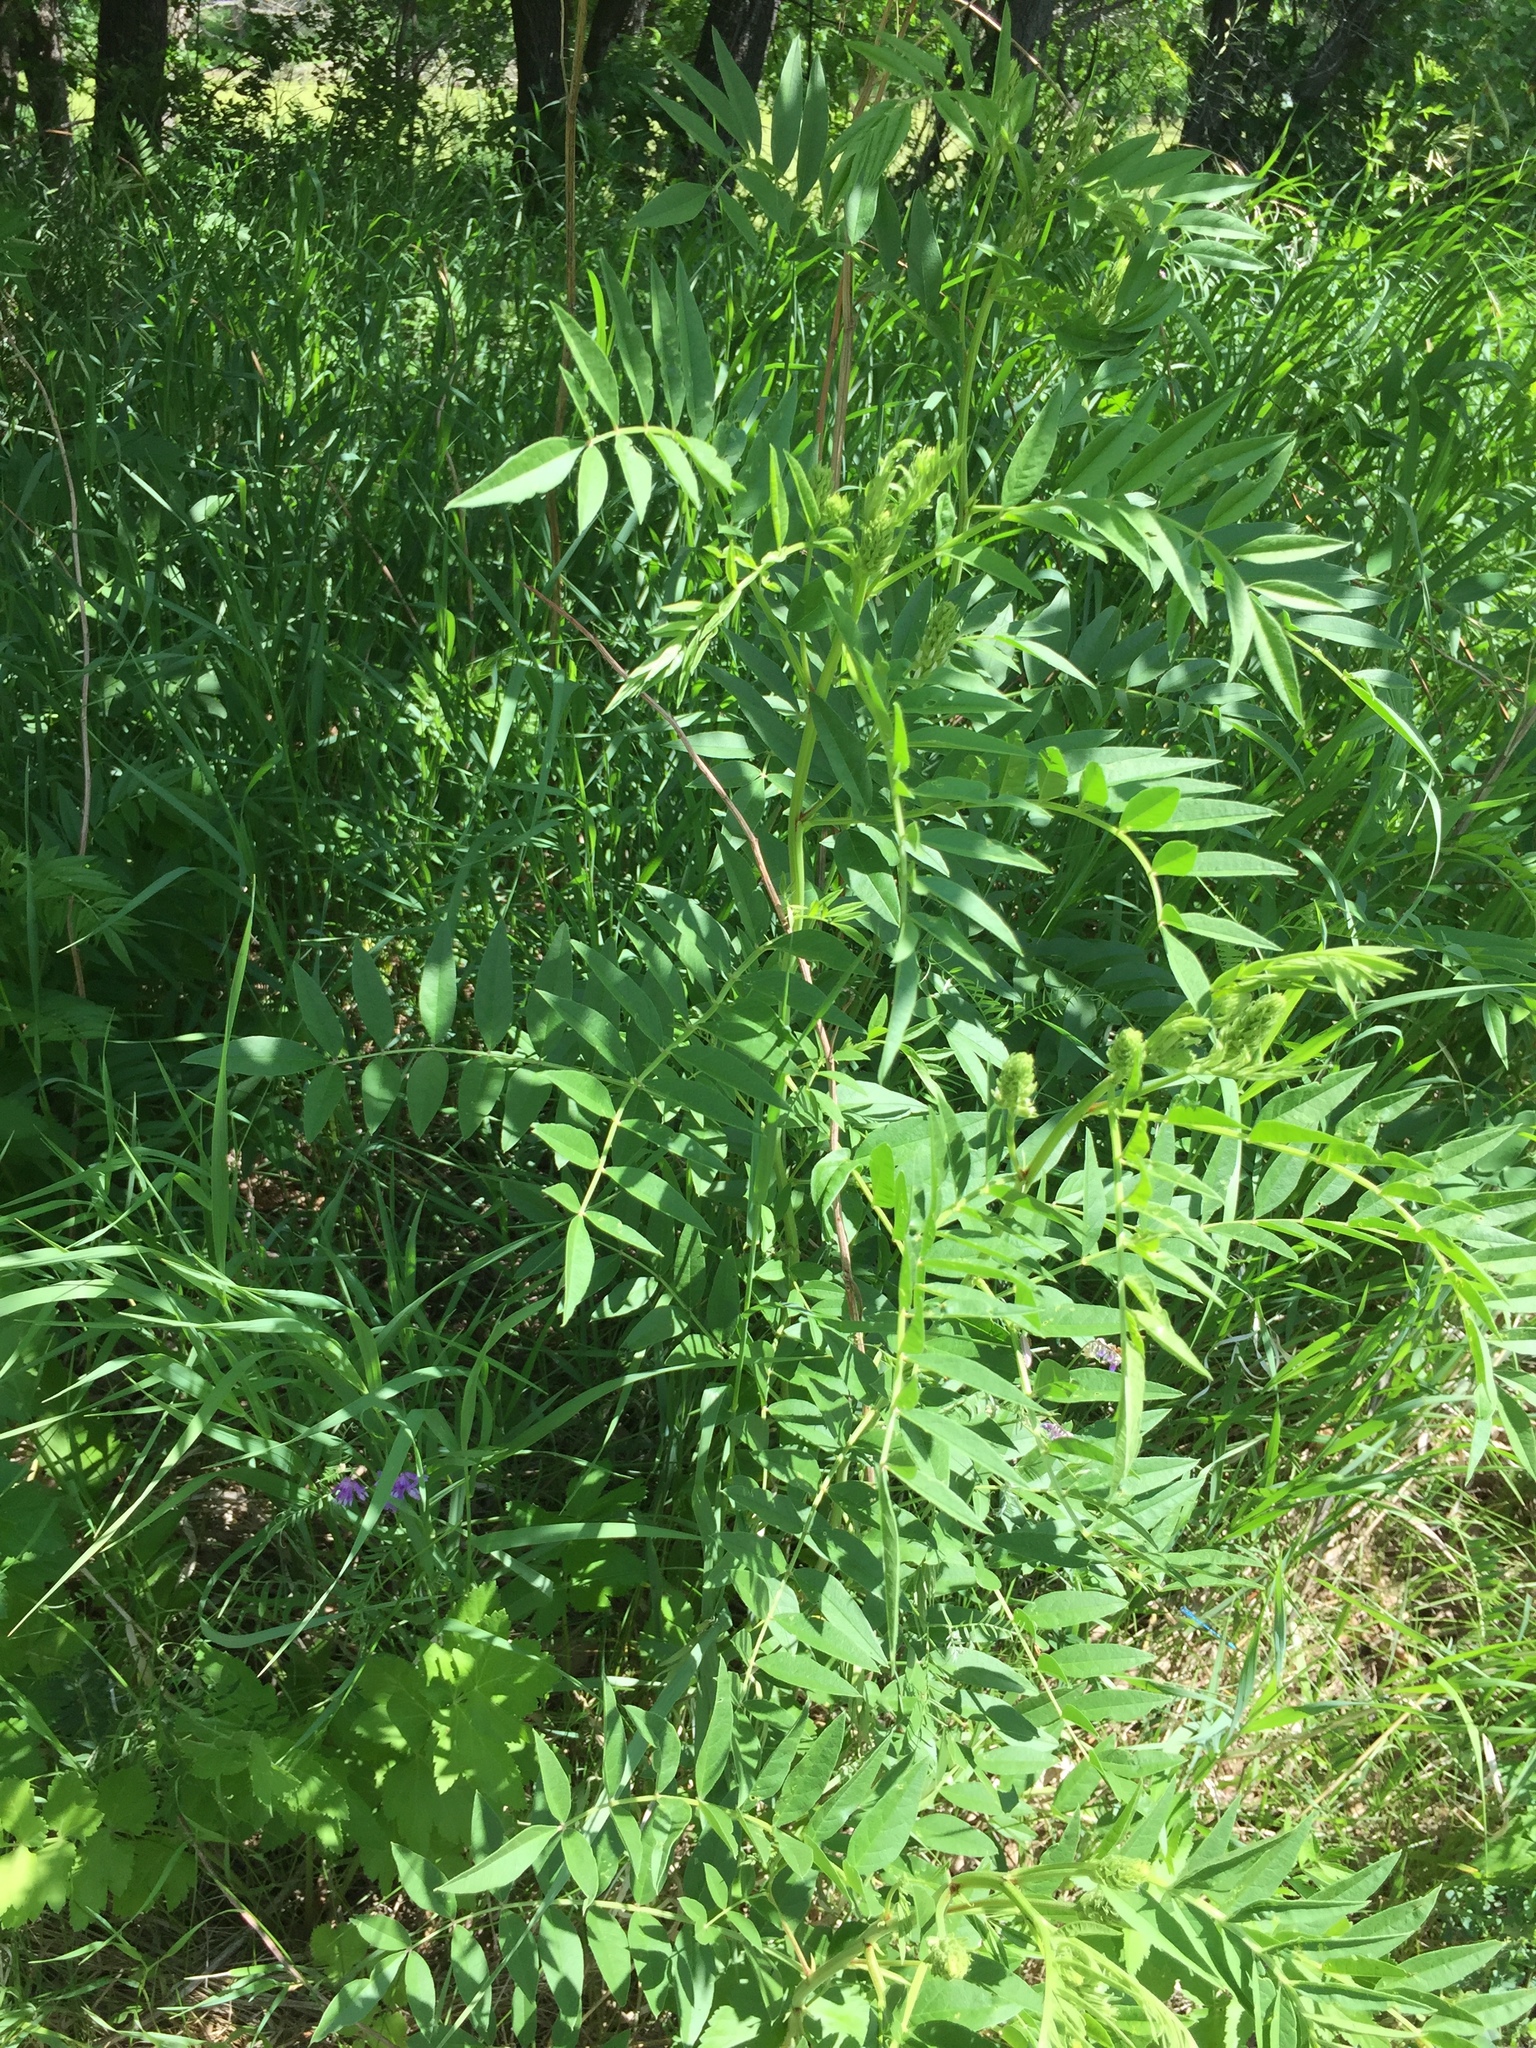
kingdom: Plantae
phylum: Tracheophyta
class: Magnoliopsida
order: Fabales
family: Fabaceae
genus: Glycyrrhiza
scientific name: Glycyrrhiza lepidota
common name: American liquorice
